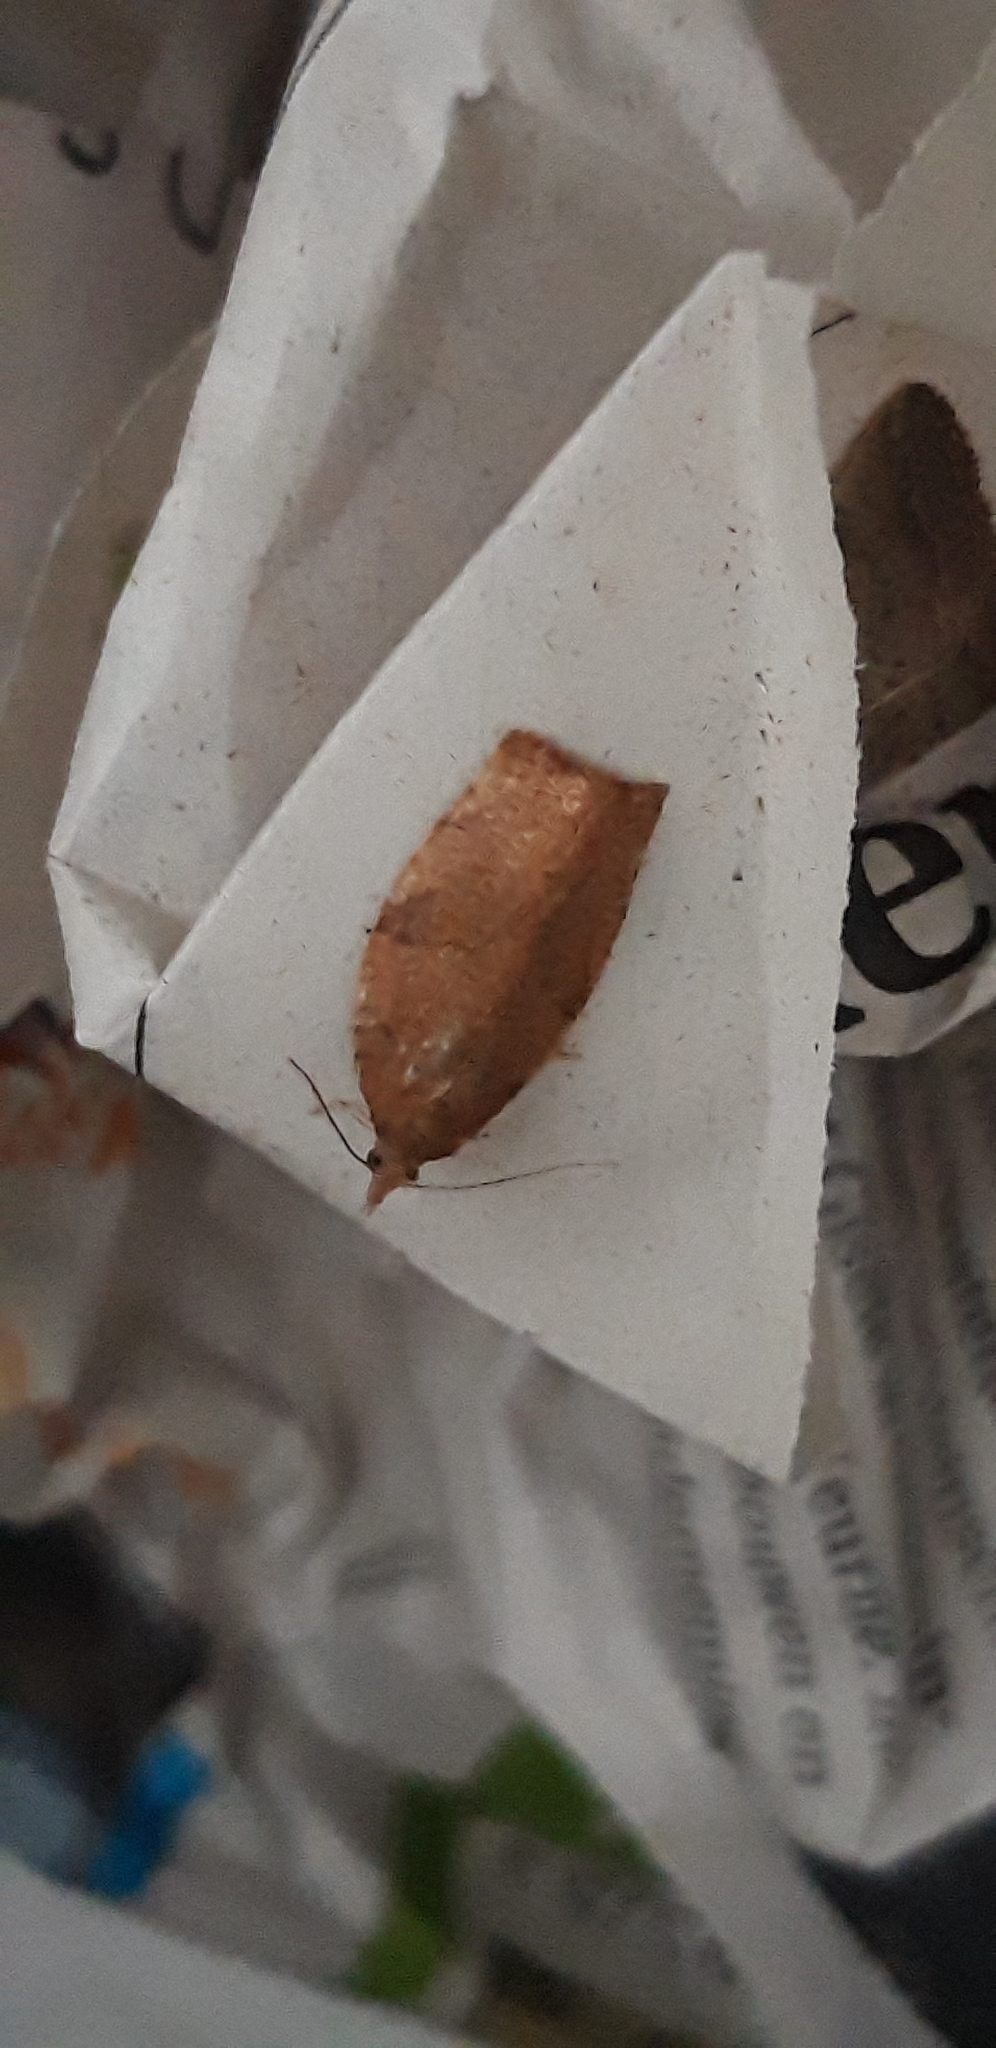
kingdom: Animalia
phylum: Arthropoda
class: Insecta
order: Lepidoptera
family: Tortricidae
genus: Pandemis
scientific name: Pandemis heparana
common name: Dark fruit-tree tortrix
